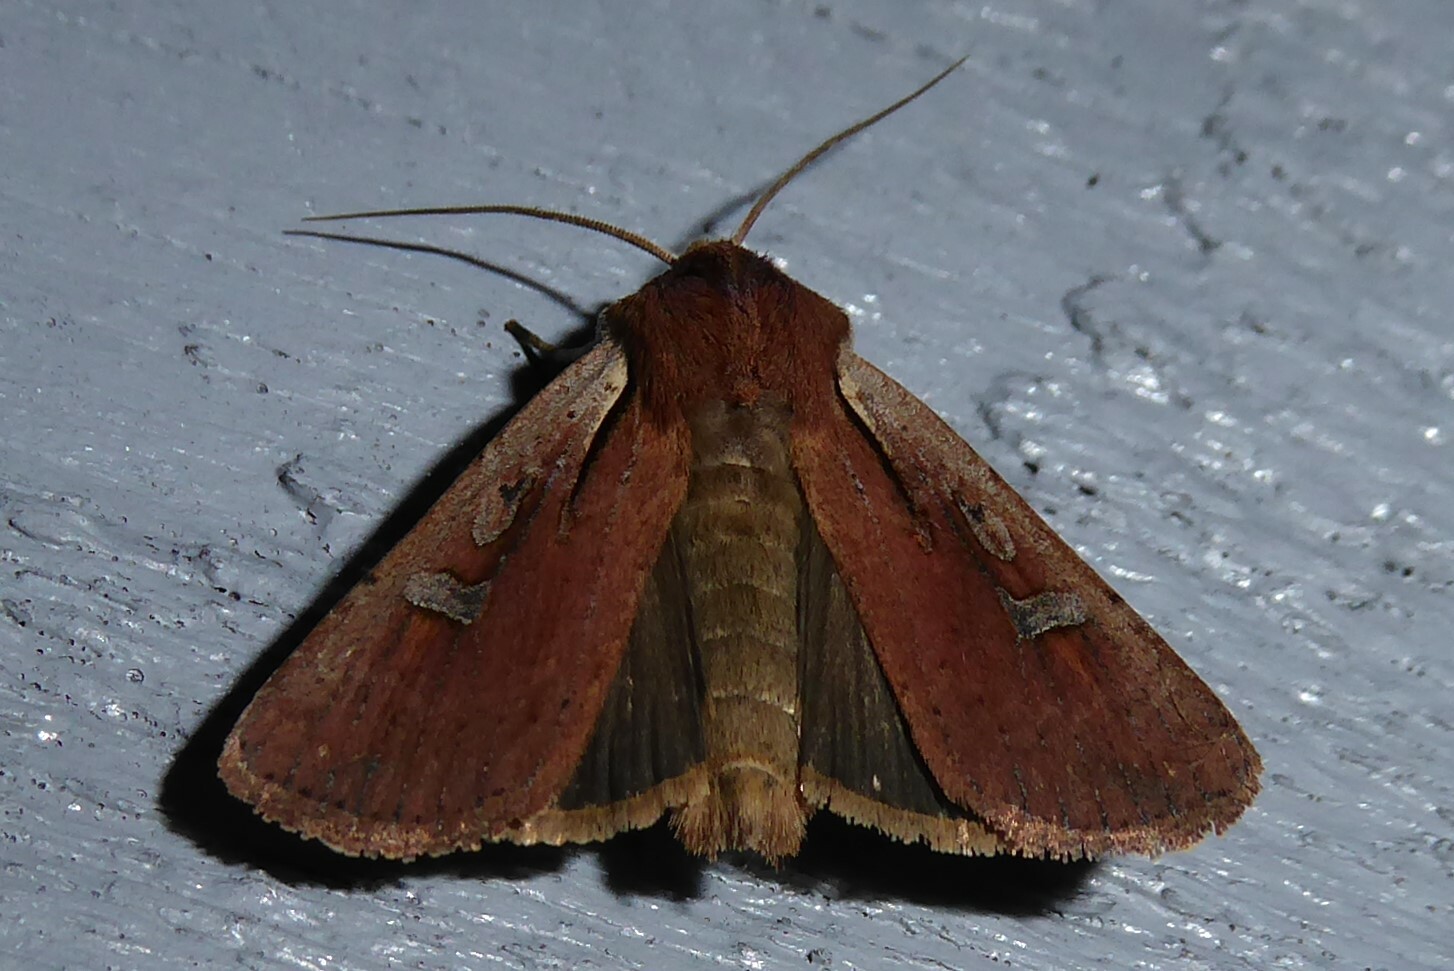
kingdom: Animalia
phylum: Arthropoda
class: Insecta
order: Lepidoptera
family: Noctuidae
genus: Ichneutica
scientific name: Ichneutica atristriga
